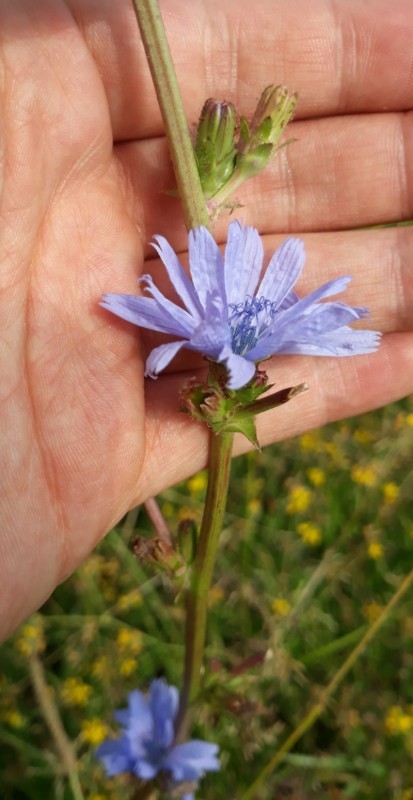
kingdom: Plantae
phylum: Tracheophyta
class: Magnoliopsida
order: Asterales
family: Asteraceae
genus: Cichorium
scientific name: Cichorium intybus
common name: Chicory
